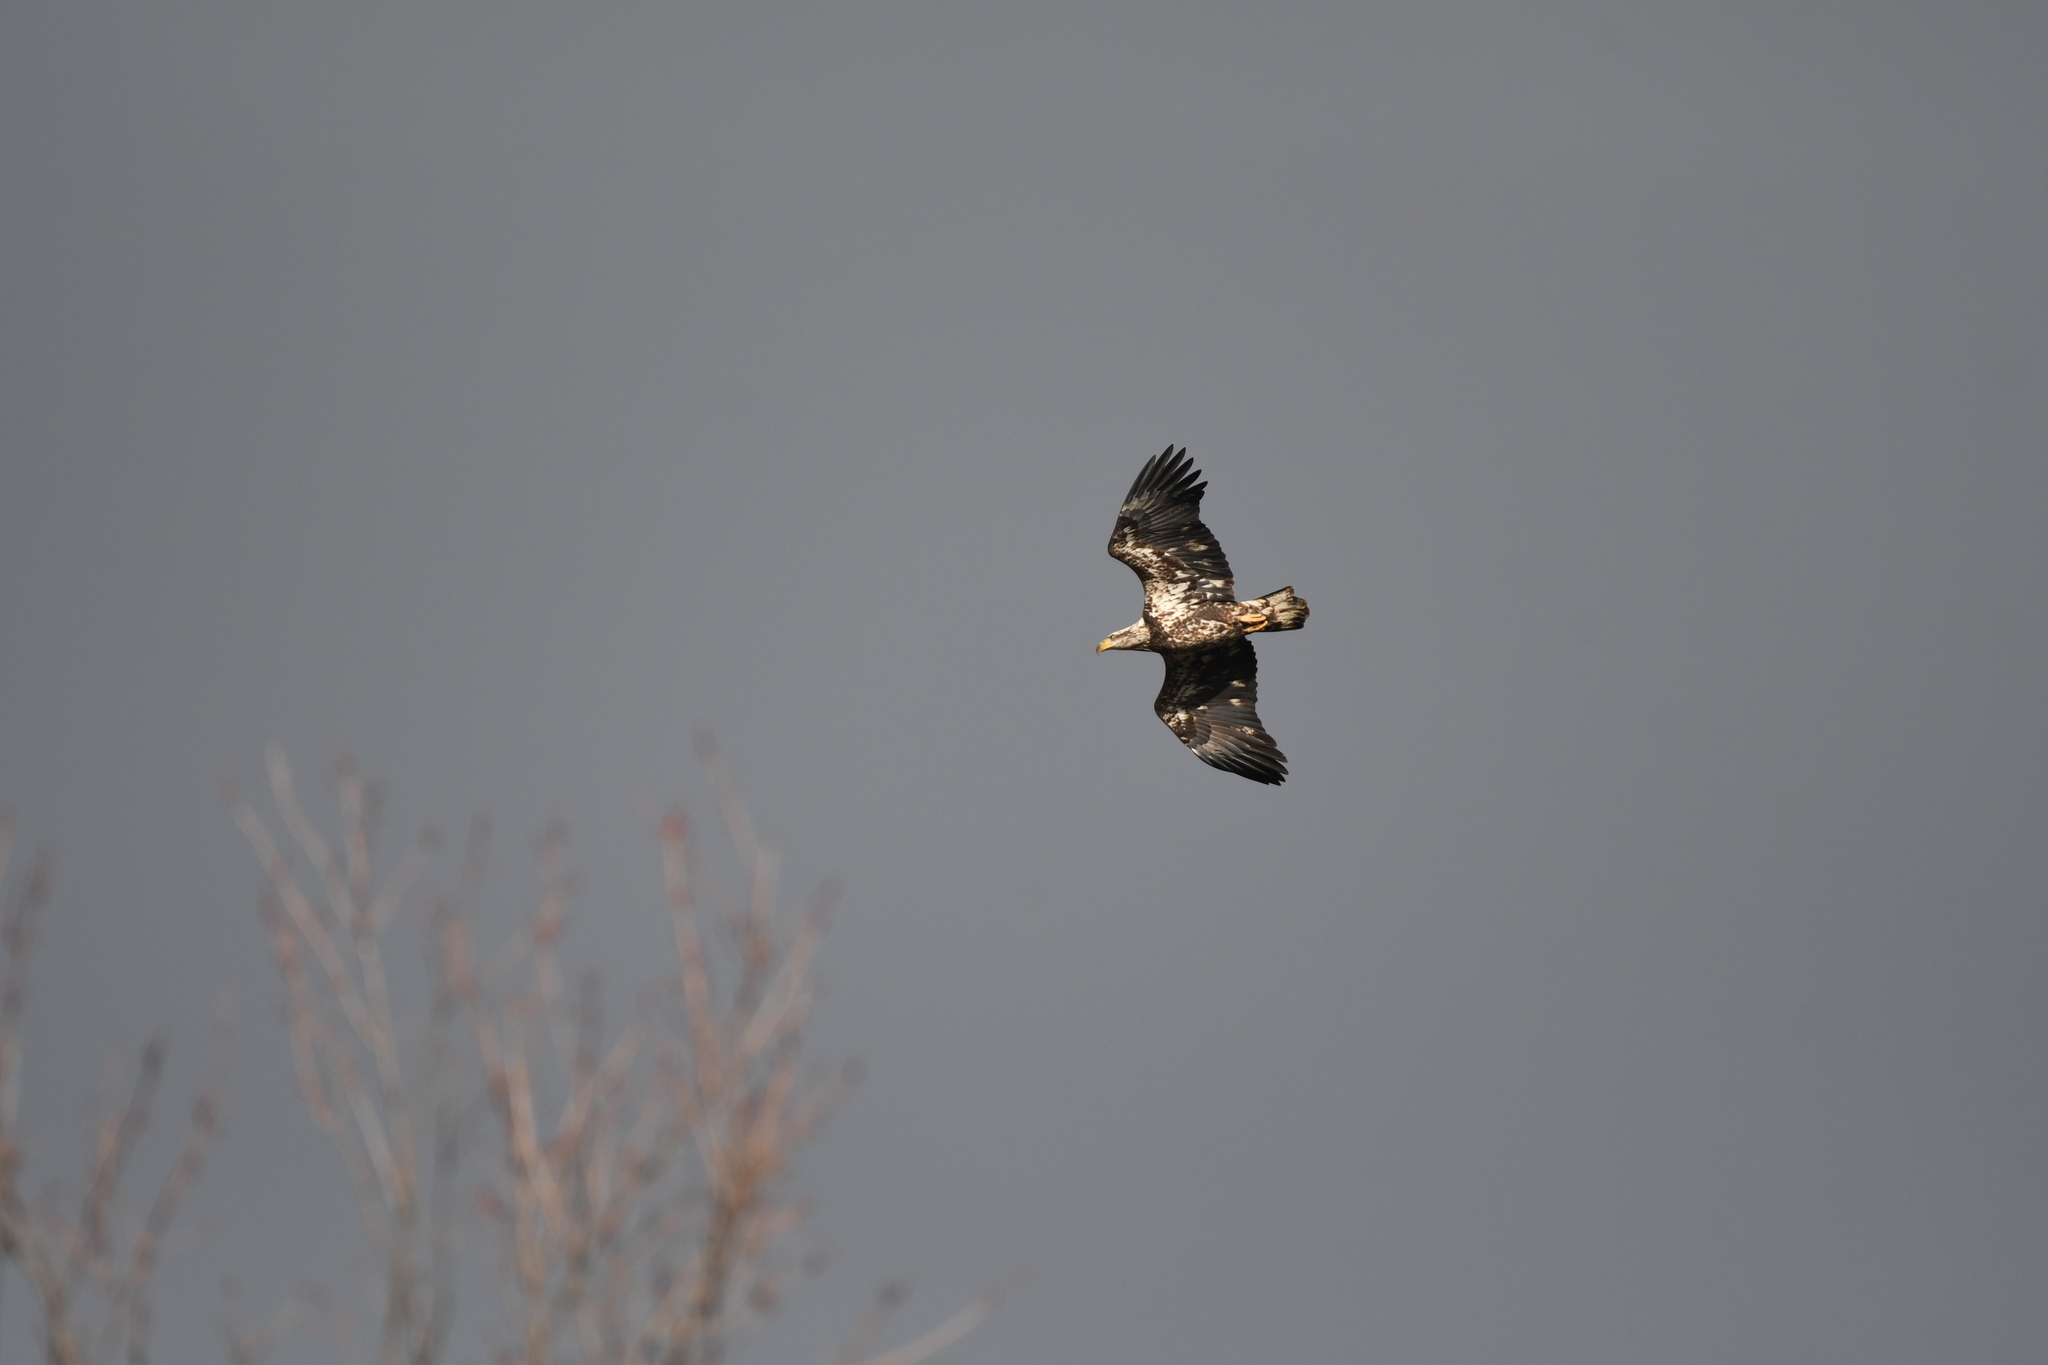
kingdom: Animalia
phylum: Chordata
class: Aves
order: Accipitriformes
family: Accipitridae
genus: Haliaeetus
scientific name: Haliaeetus leucocephalus
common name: Bald eagle
